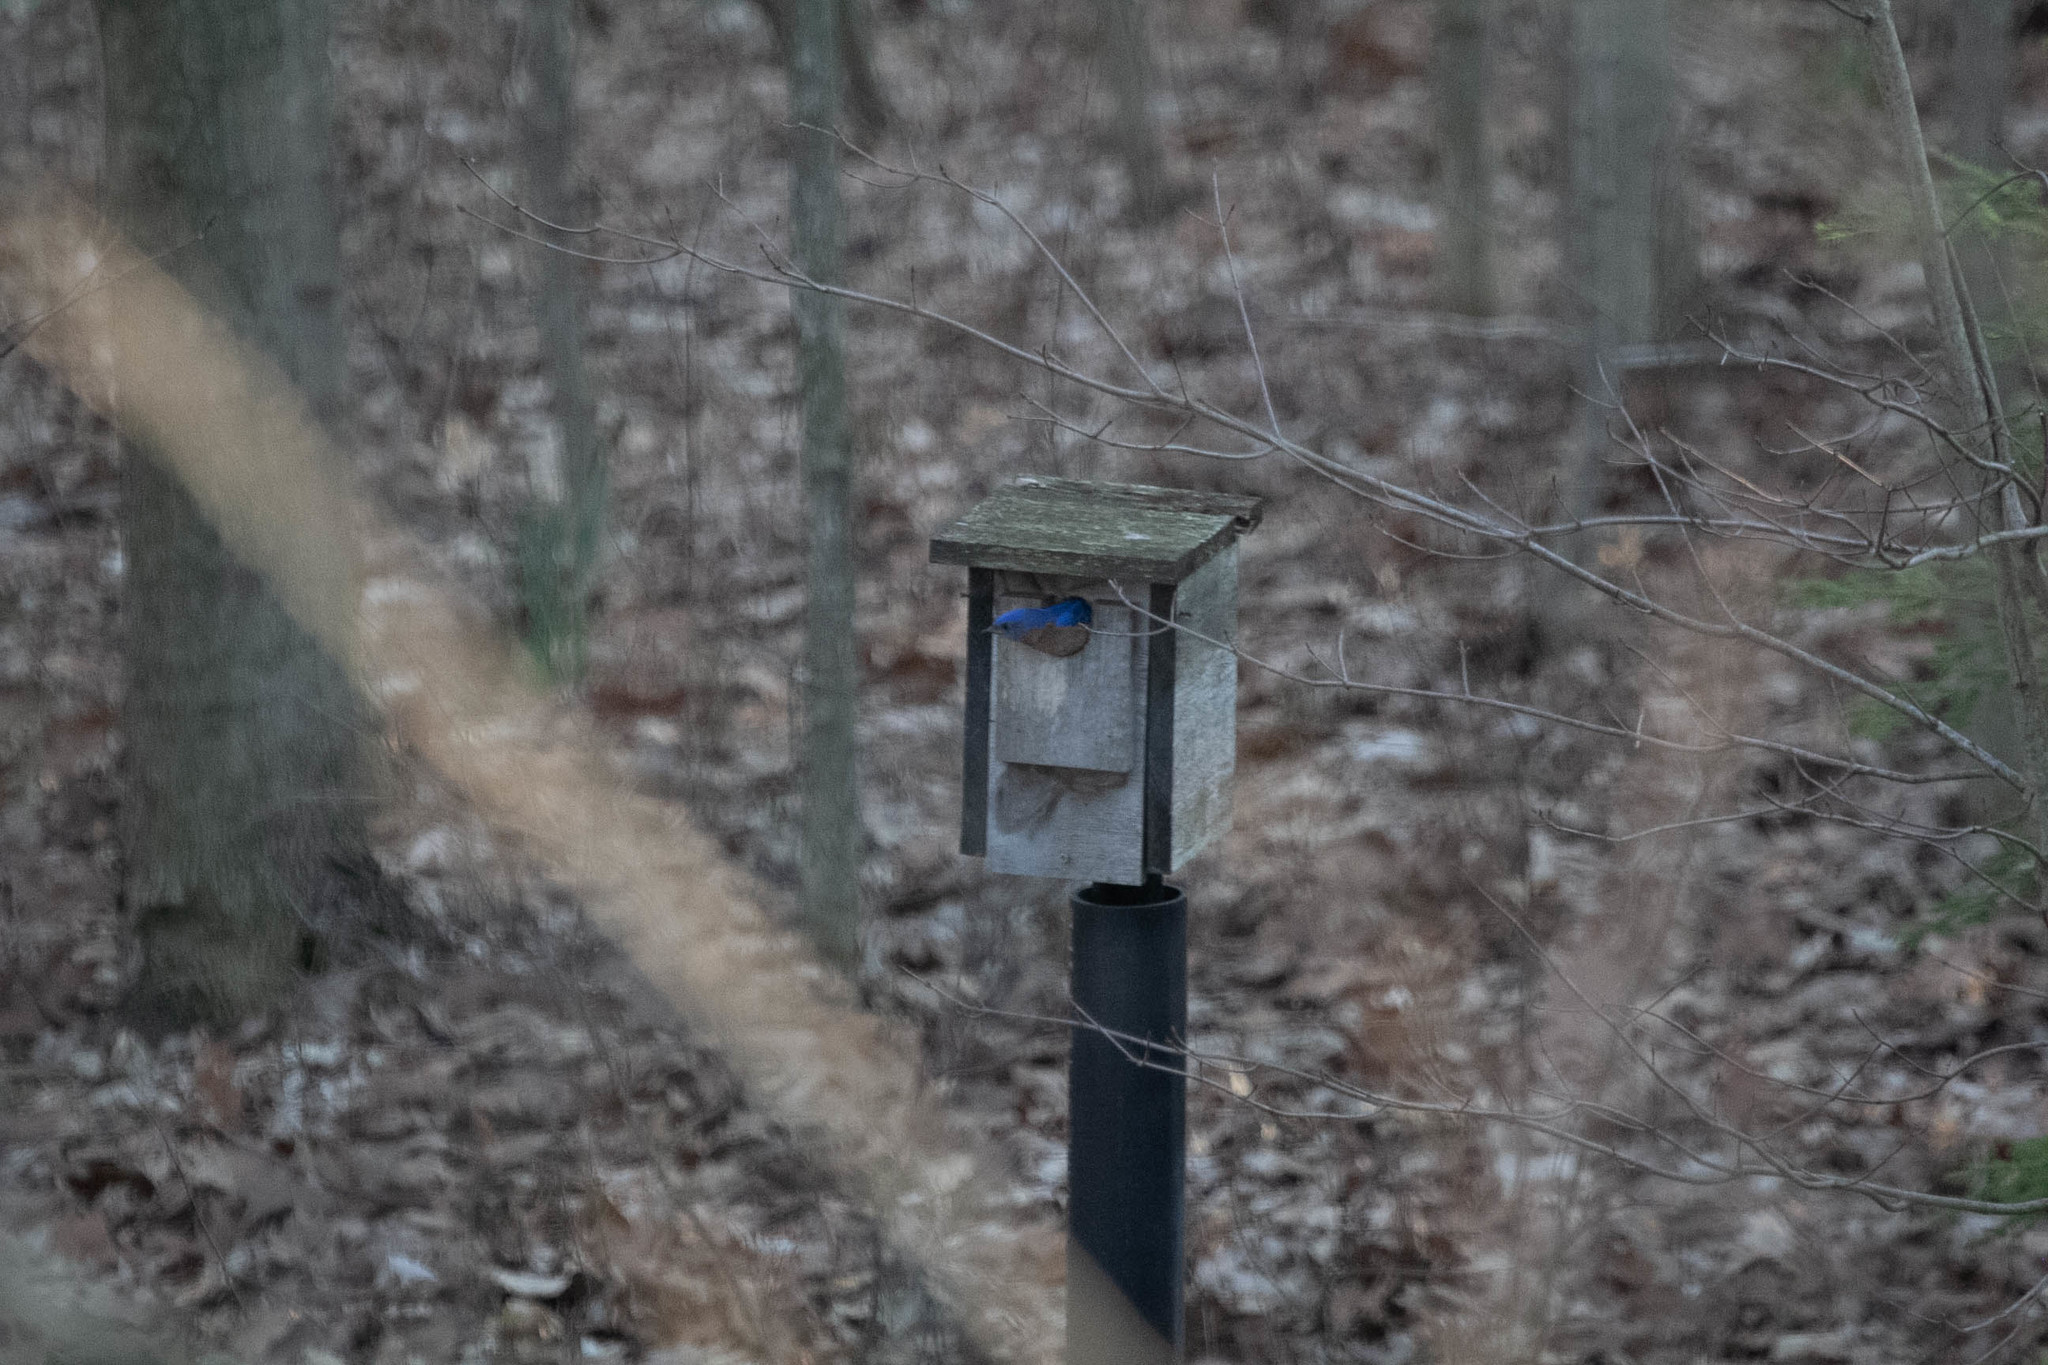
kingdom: Animalia
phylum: Chordata
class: Aves
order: Passeriformes
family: Turdidae
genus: Sialia
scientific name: Sialia sialis
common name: Eastern bluebird
